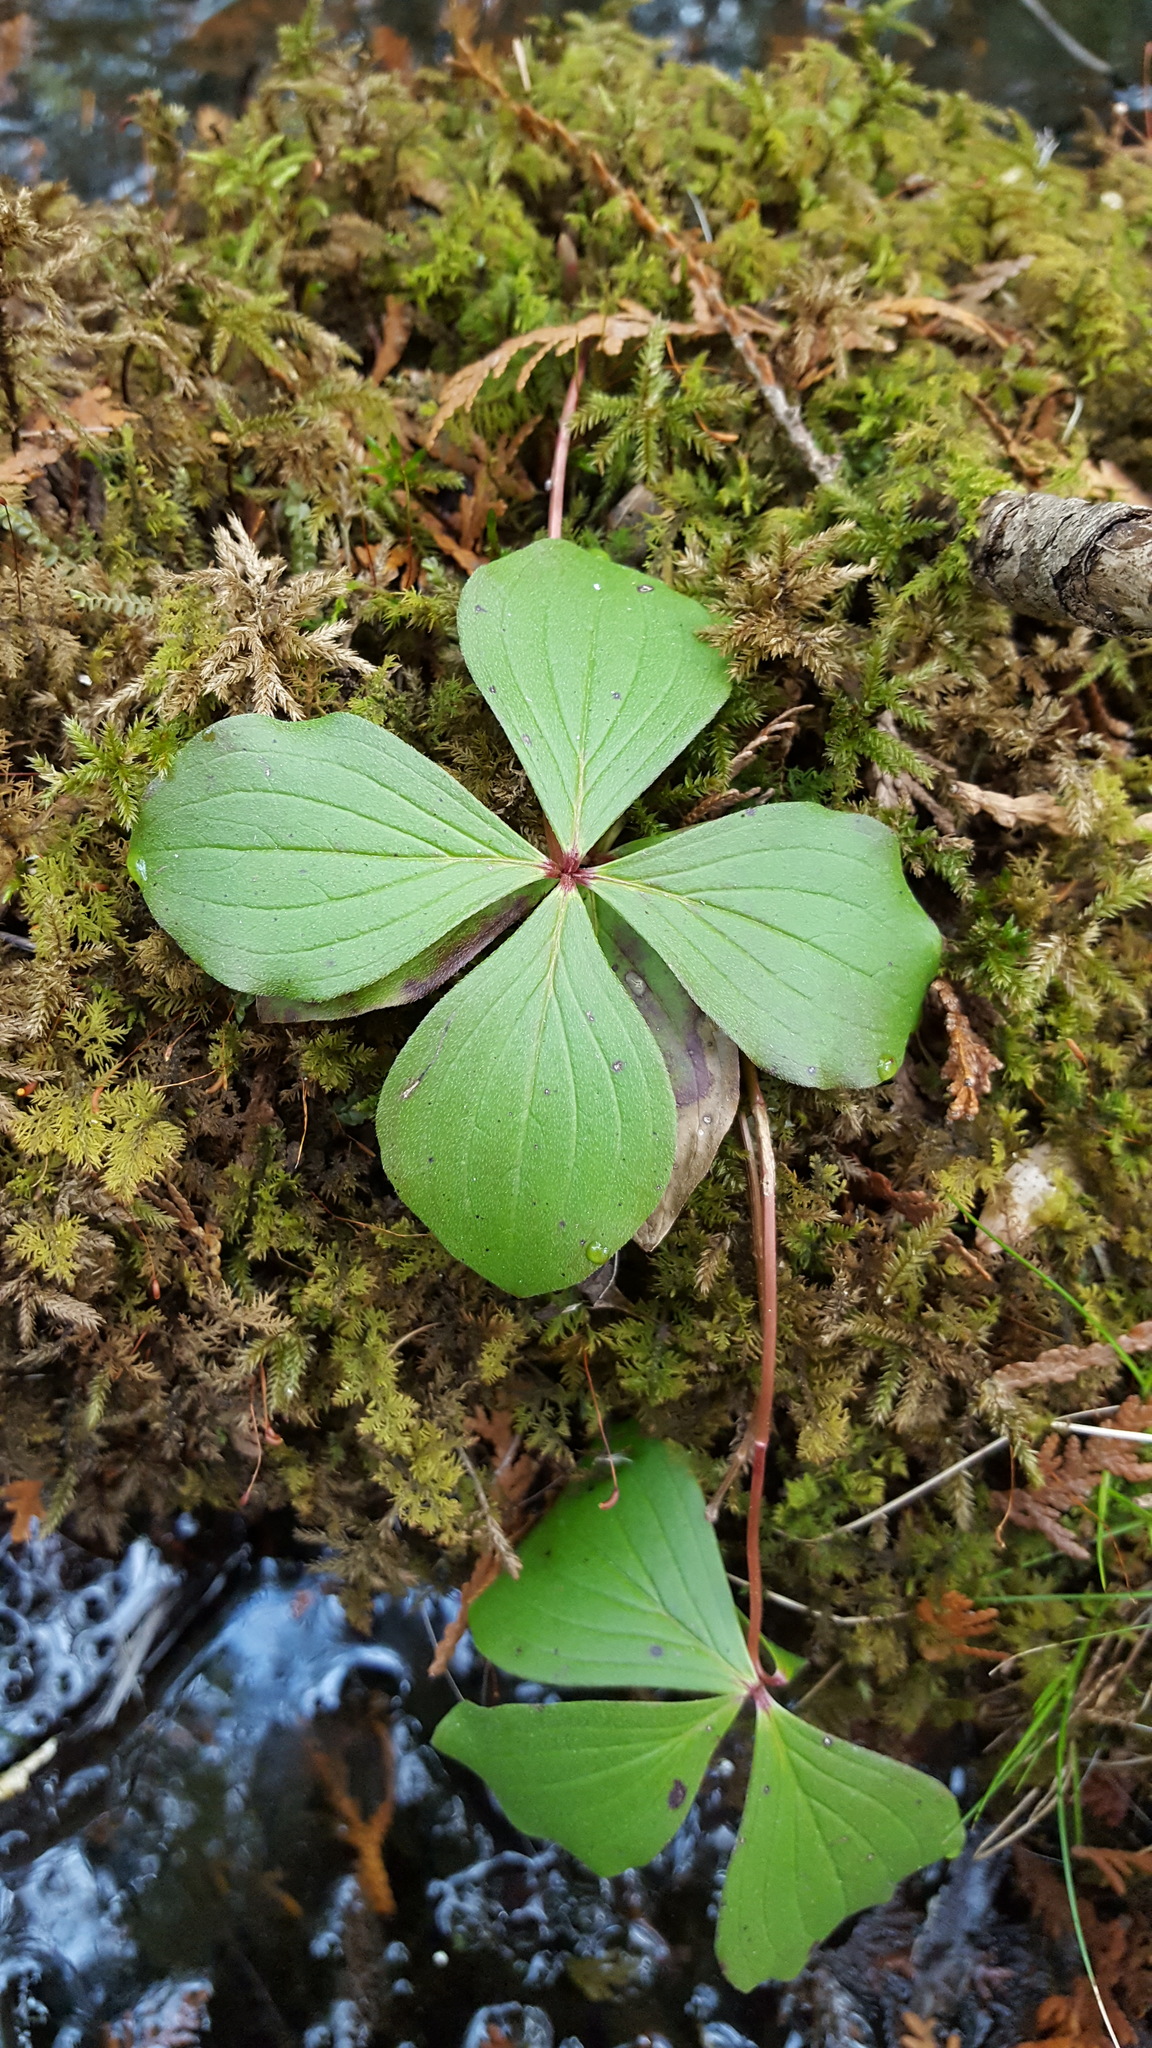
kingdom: Plantae
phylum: Tracheophyta
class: Magnoliopsida
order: Cornales
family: Cornaceae
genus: Cornus
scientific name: Cornus canadensis
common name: Creeping dogwood
